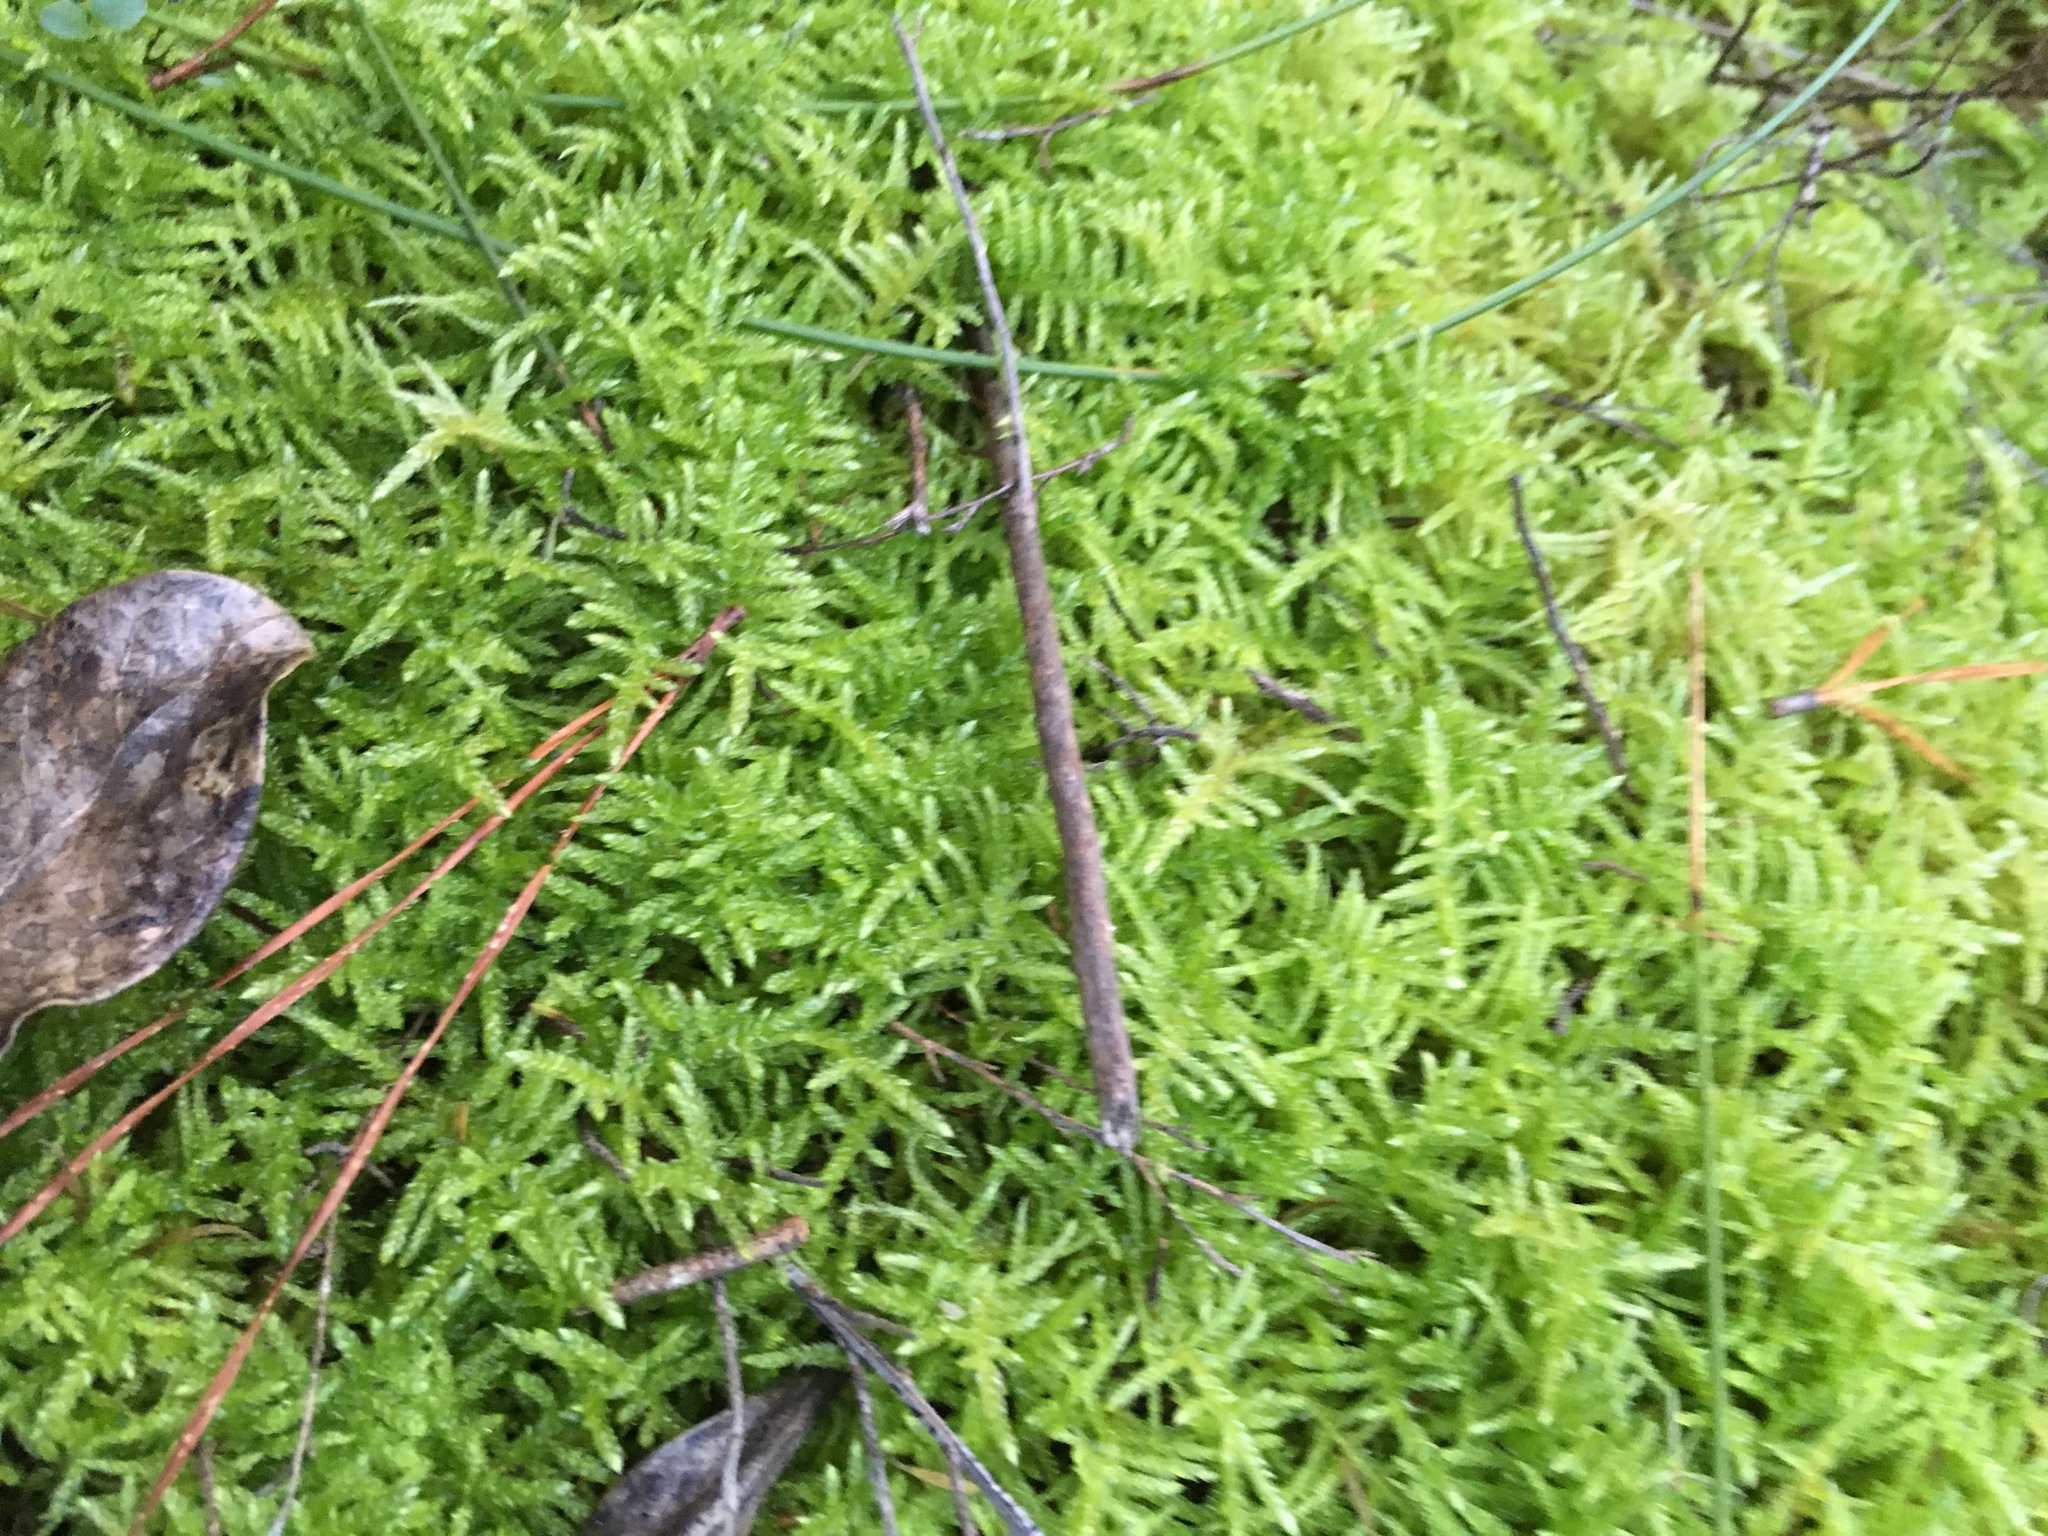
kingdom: Plantae
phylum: Bryophyta
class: Bryopsida
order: Hypnales
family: Brachytheciaceae
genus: Pseudoscleropodium
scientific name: Pseudoscleropodium purum
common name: Neat feather-moss
